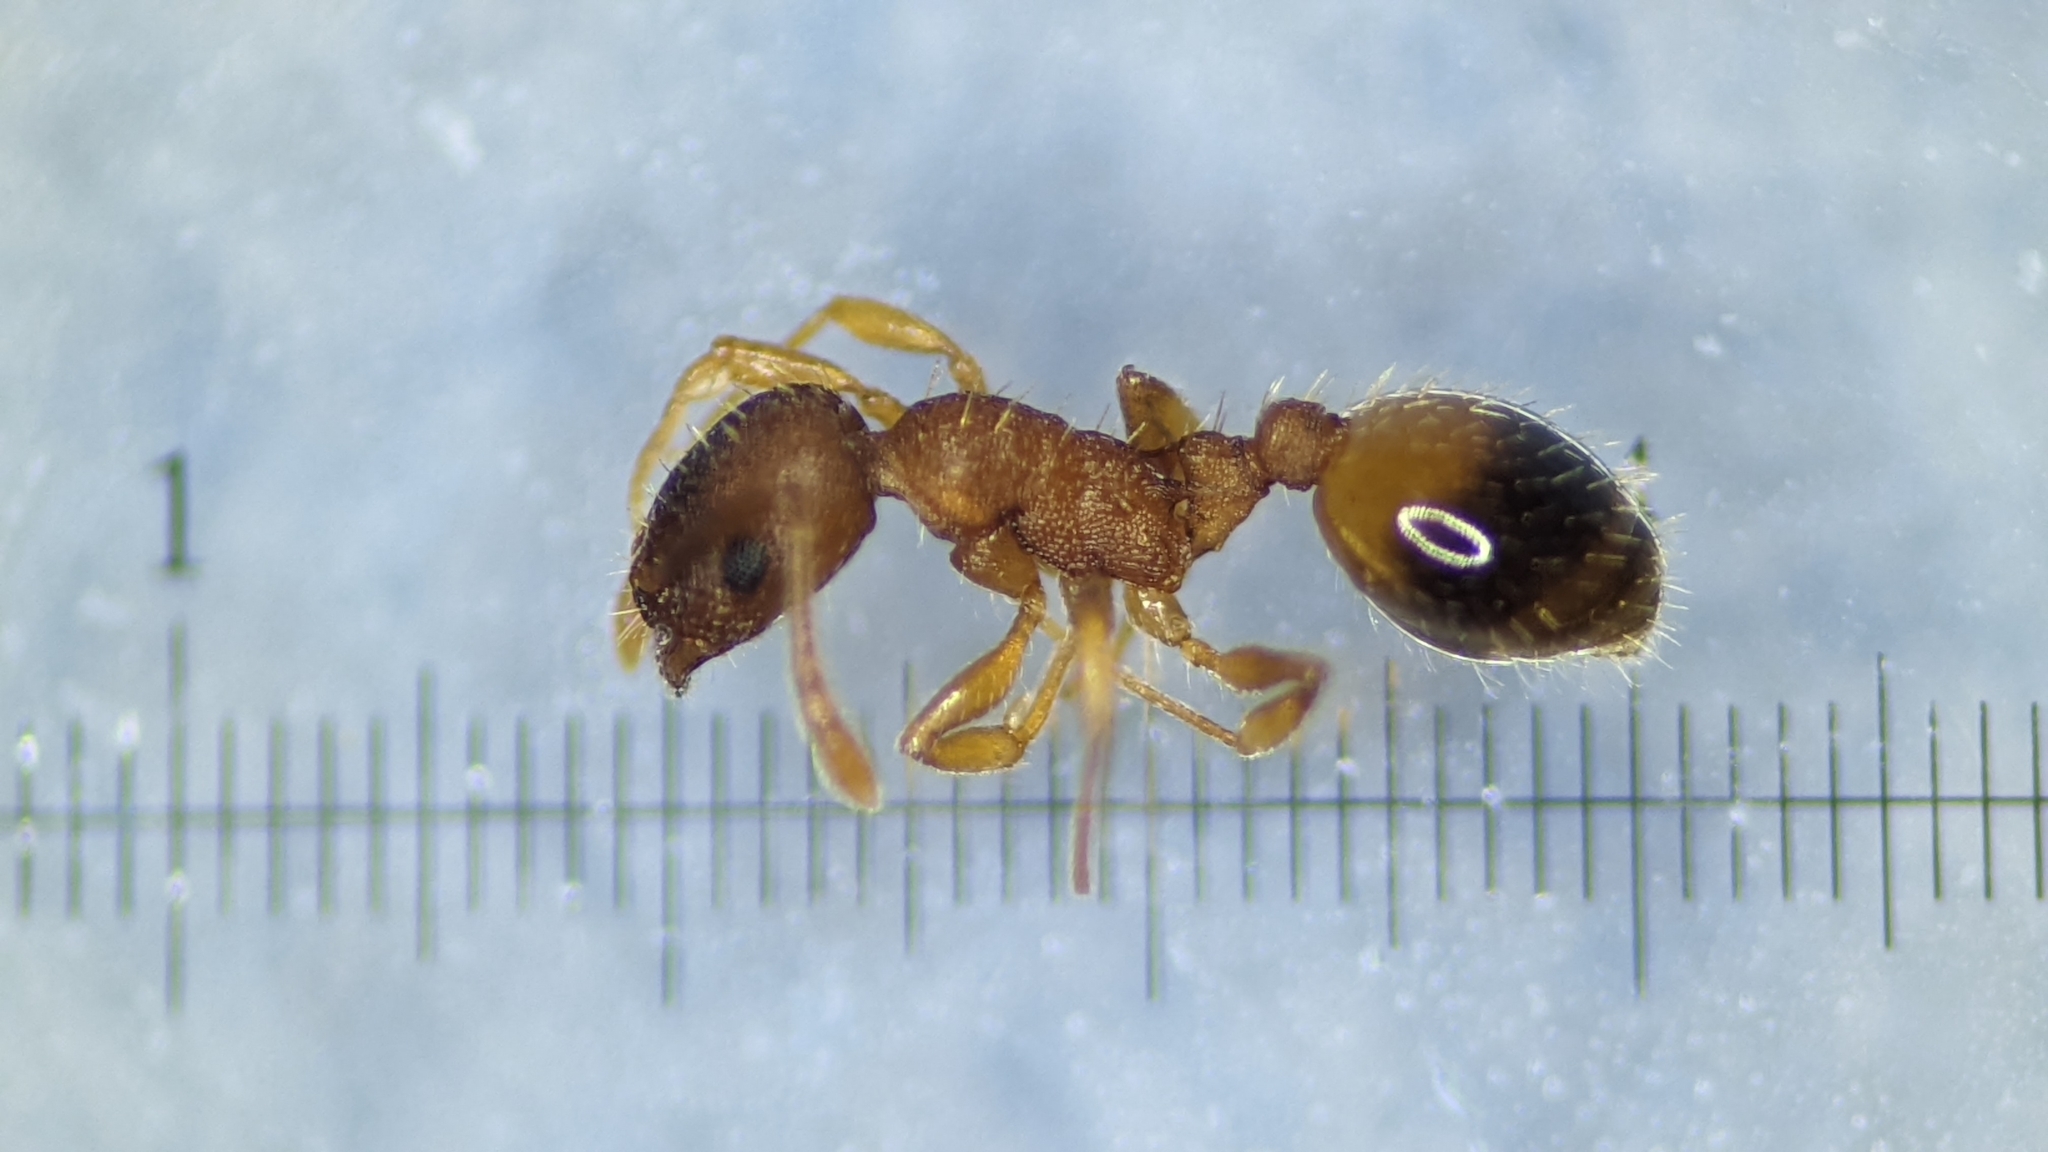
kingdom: Animalia
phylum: Arthropoda
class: Insecta
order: Hymenoptera
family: Formicidae
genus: Temnothorax
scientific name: Temnothorax lichtensteini
